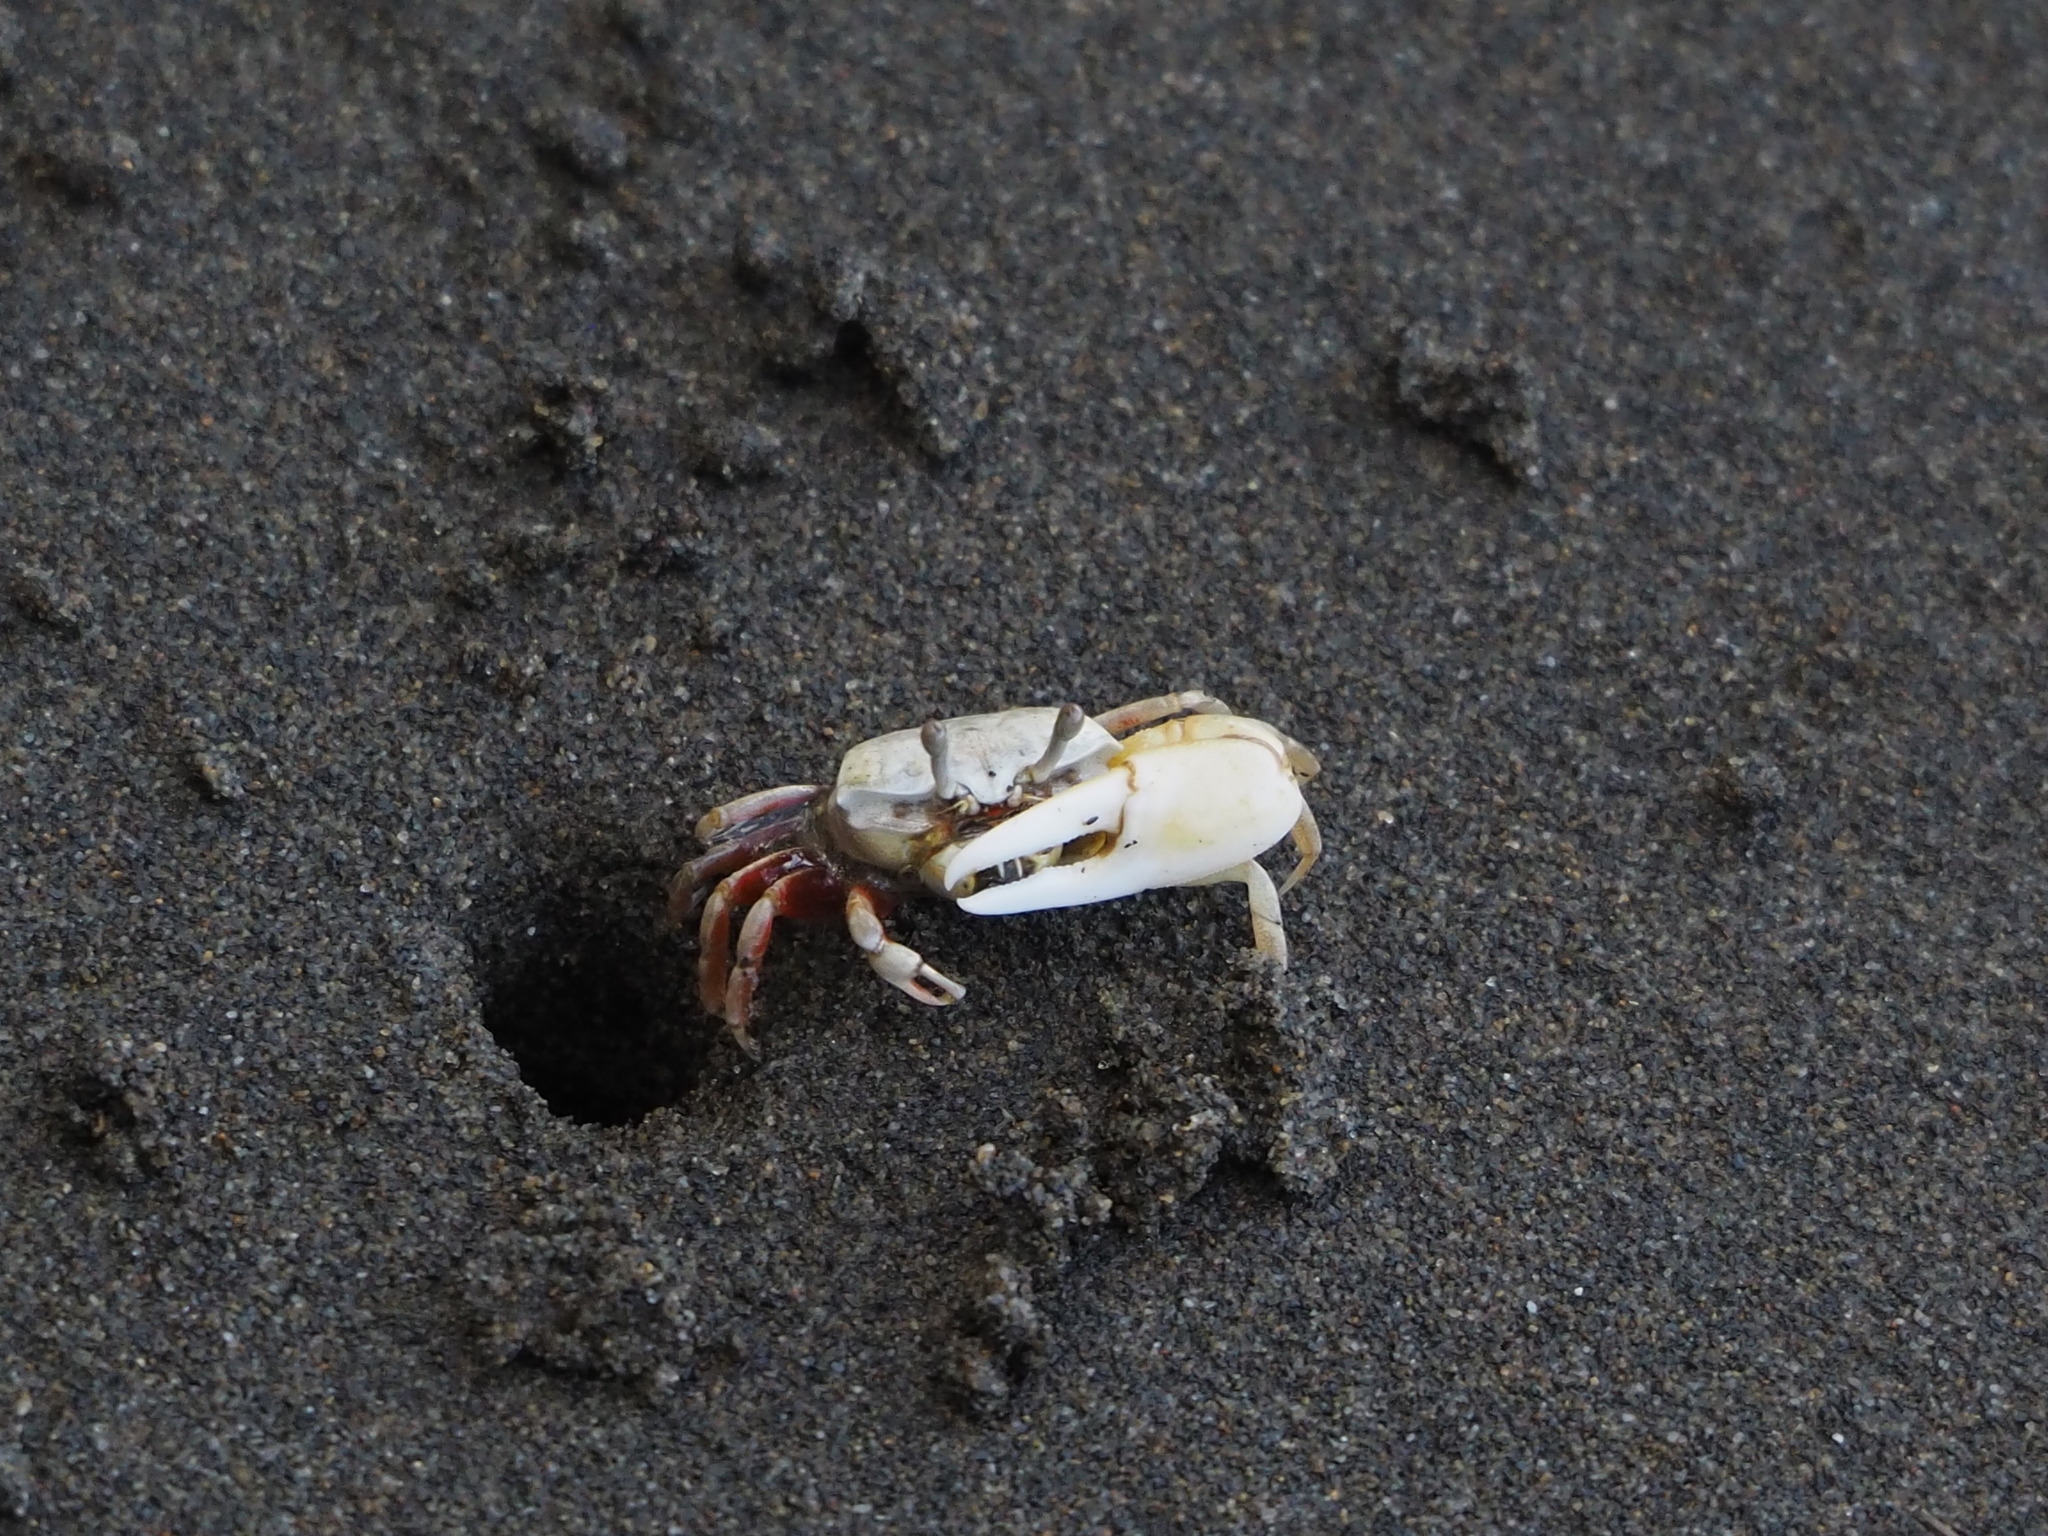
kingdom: Animalia
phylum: Arthropoda
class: Malacostraca
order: Decapoda
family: Ocypodidae
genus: Austruca
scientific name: Austruca lactea
